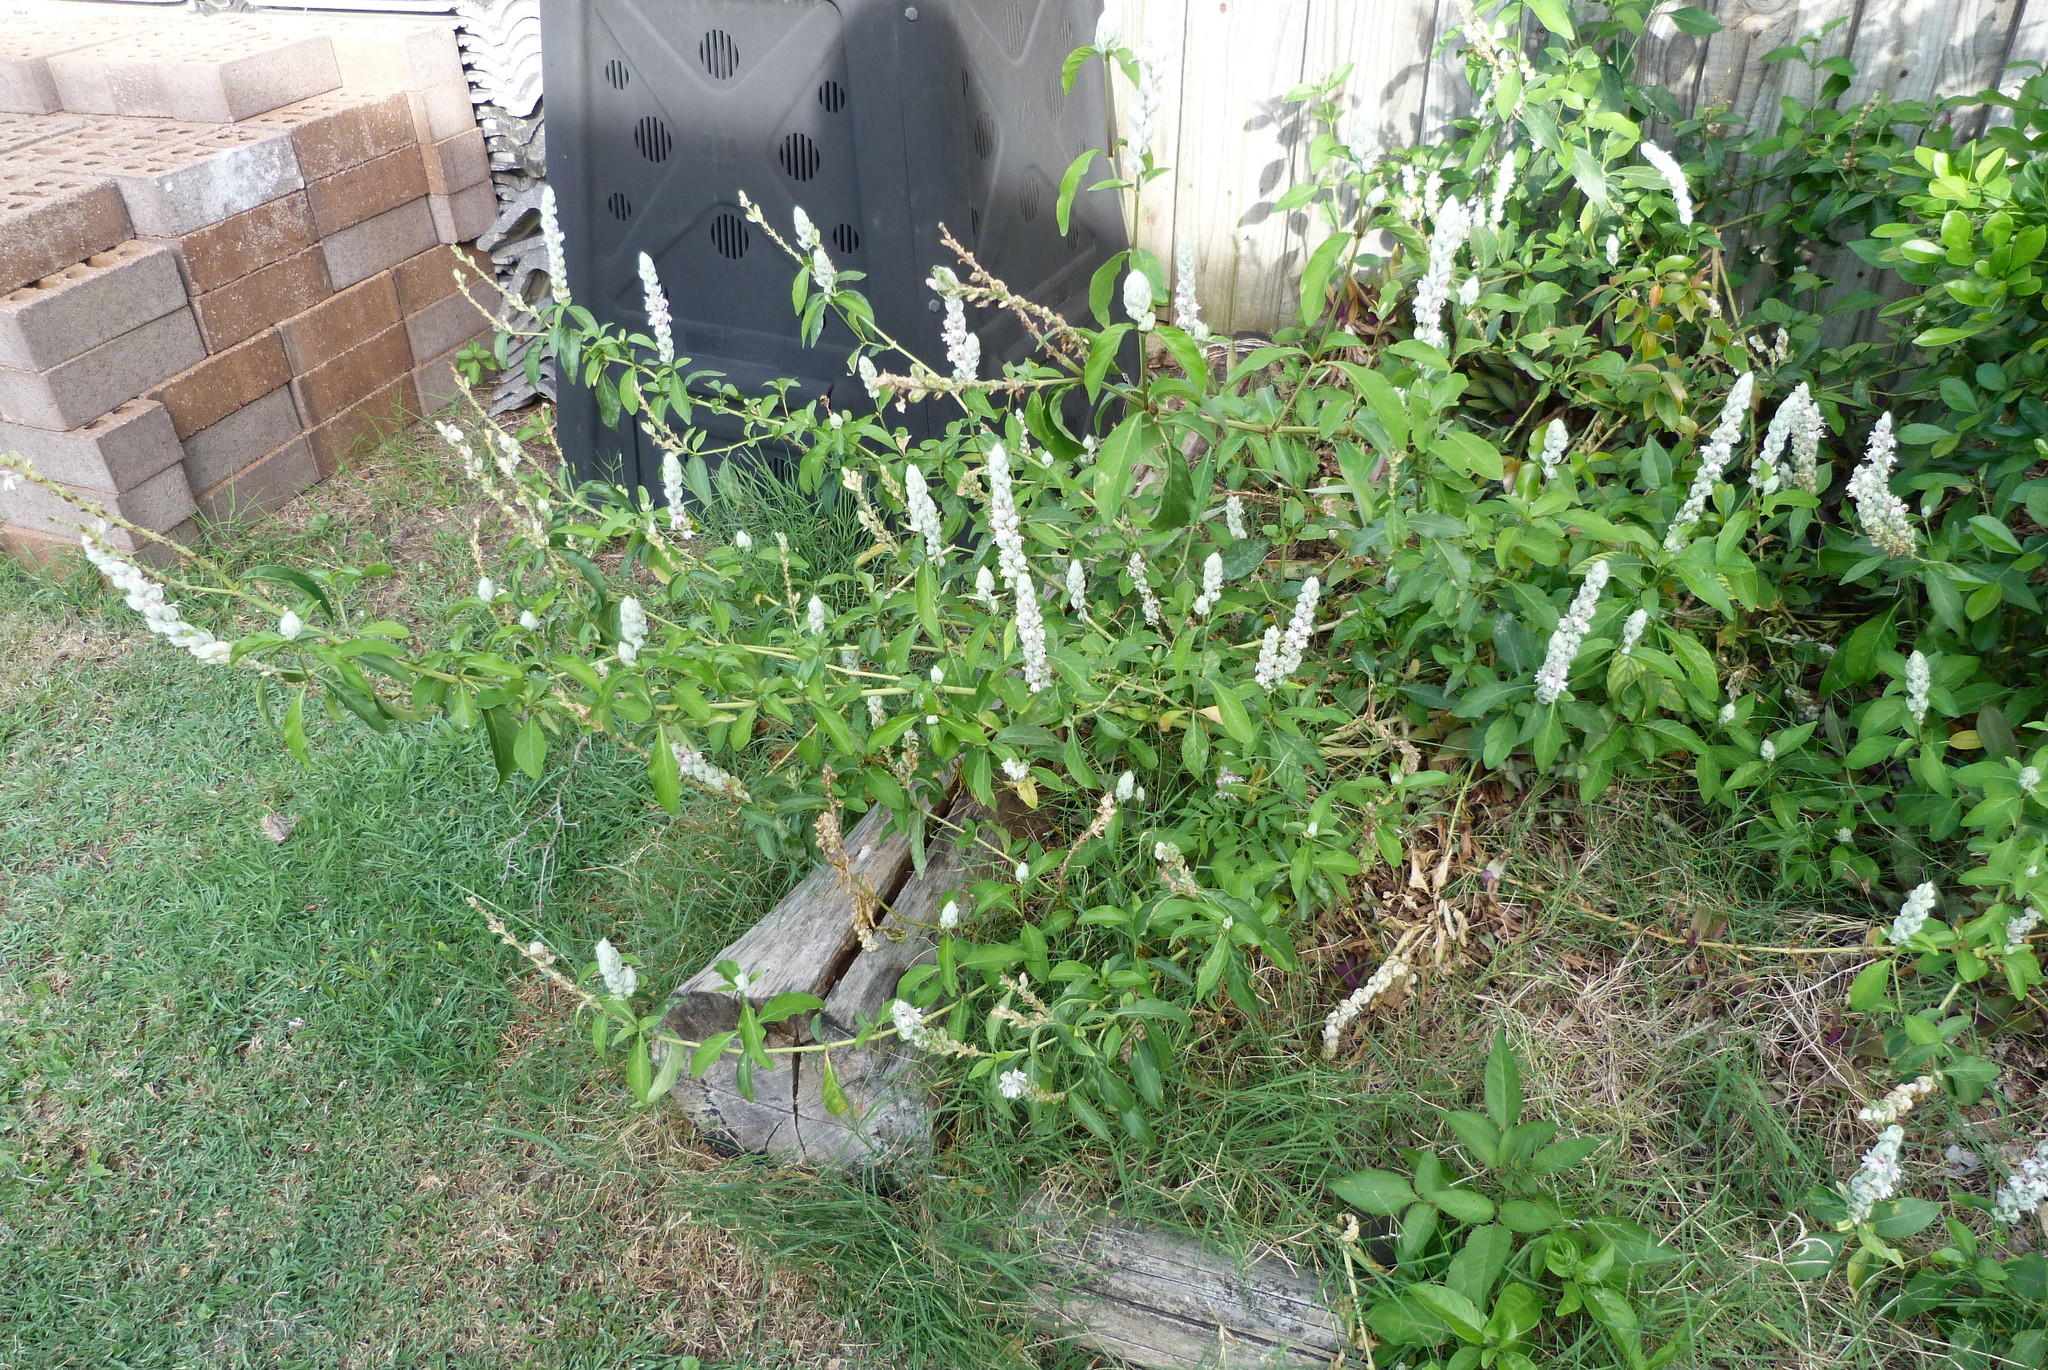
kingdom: Plantae
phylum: Tracheophyta
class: Magnoliopsida
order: Lamiales
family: Acanthaceae
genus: Justicia
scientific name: Justicia betonica
